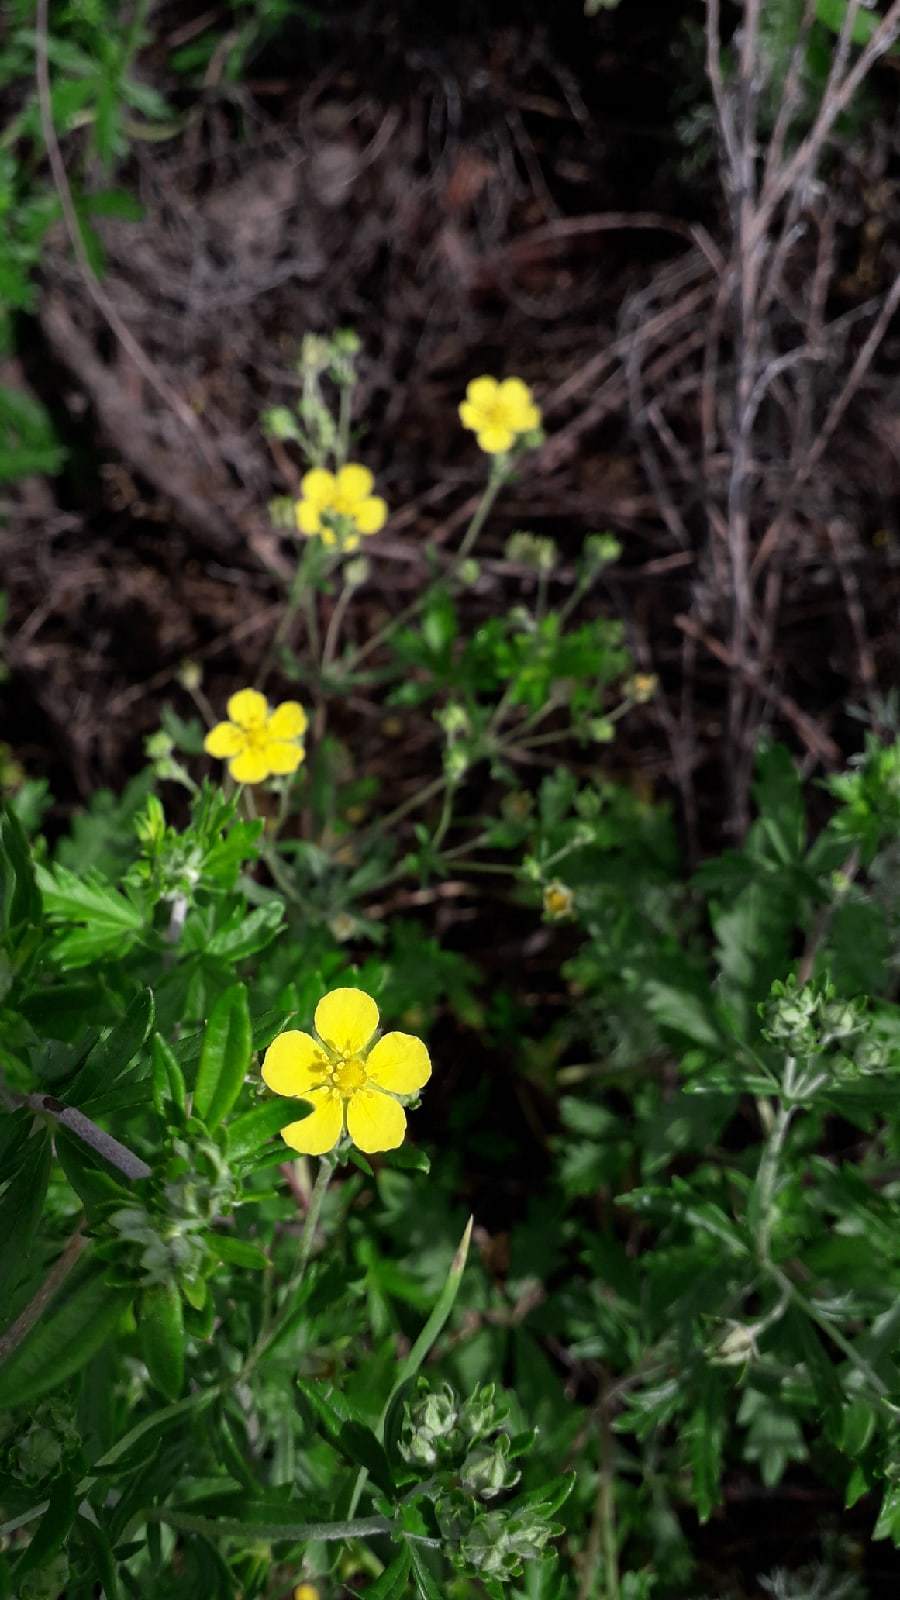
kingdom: Plantae
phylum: Tracheophyta
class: Magnoliopsida
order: Rosales
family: Rosaceae
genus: Potentilla
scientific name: Potentilla argentea
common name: Hoary cinquefoil
